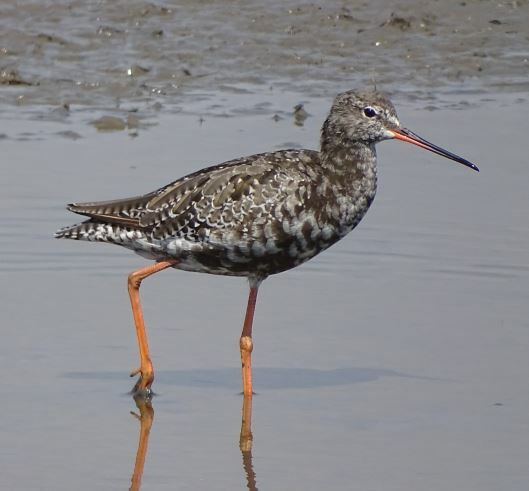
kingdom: Animalia
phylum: Chordata
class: Aves
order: Charadriiformes
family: Scolopacidae
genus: Tringa
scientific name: Tringa erythropus
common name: Spotted redshank
